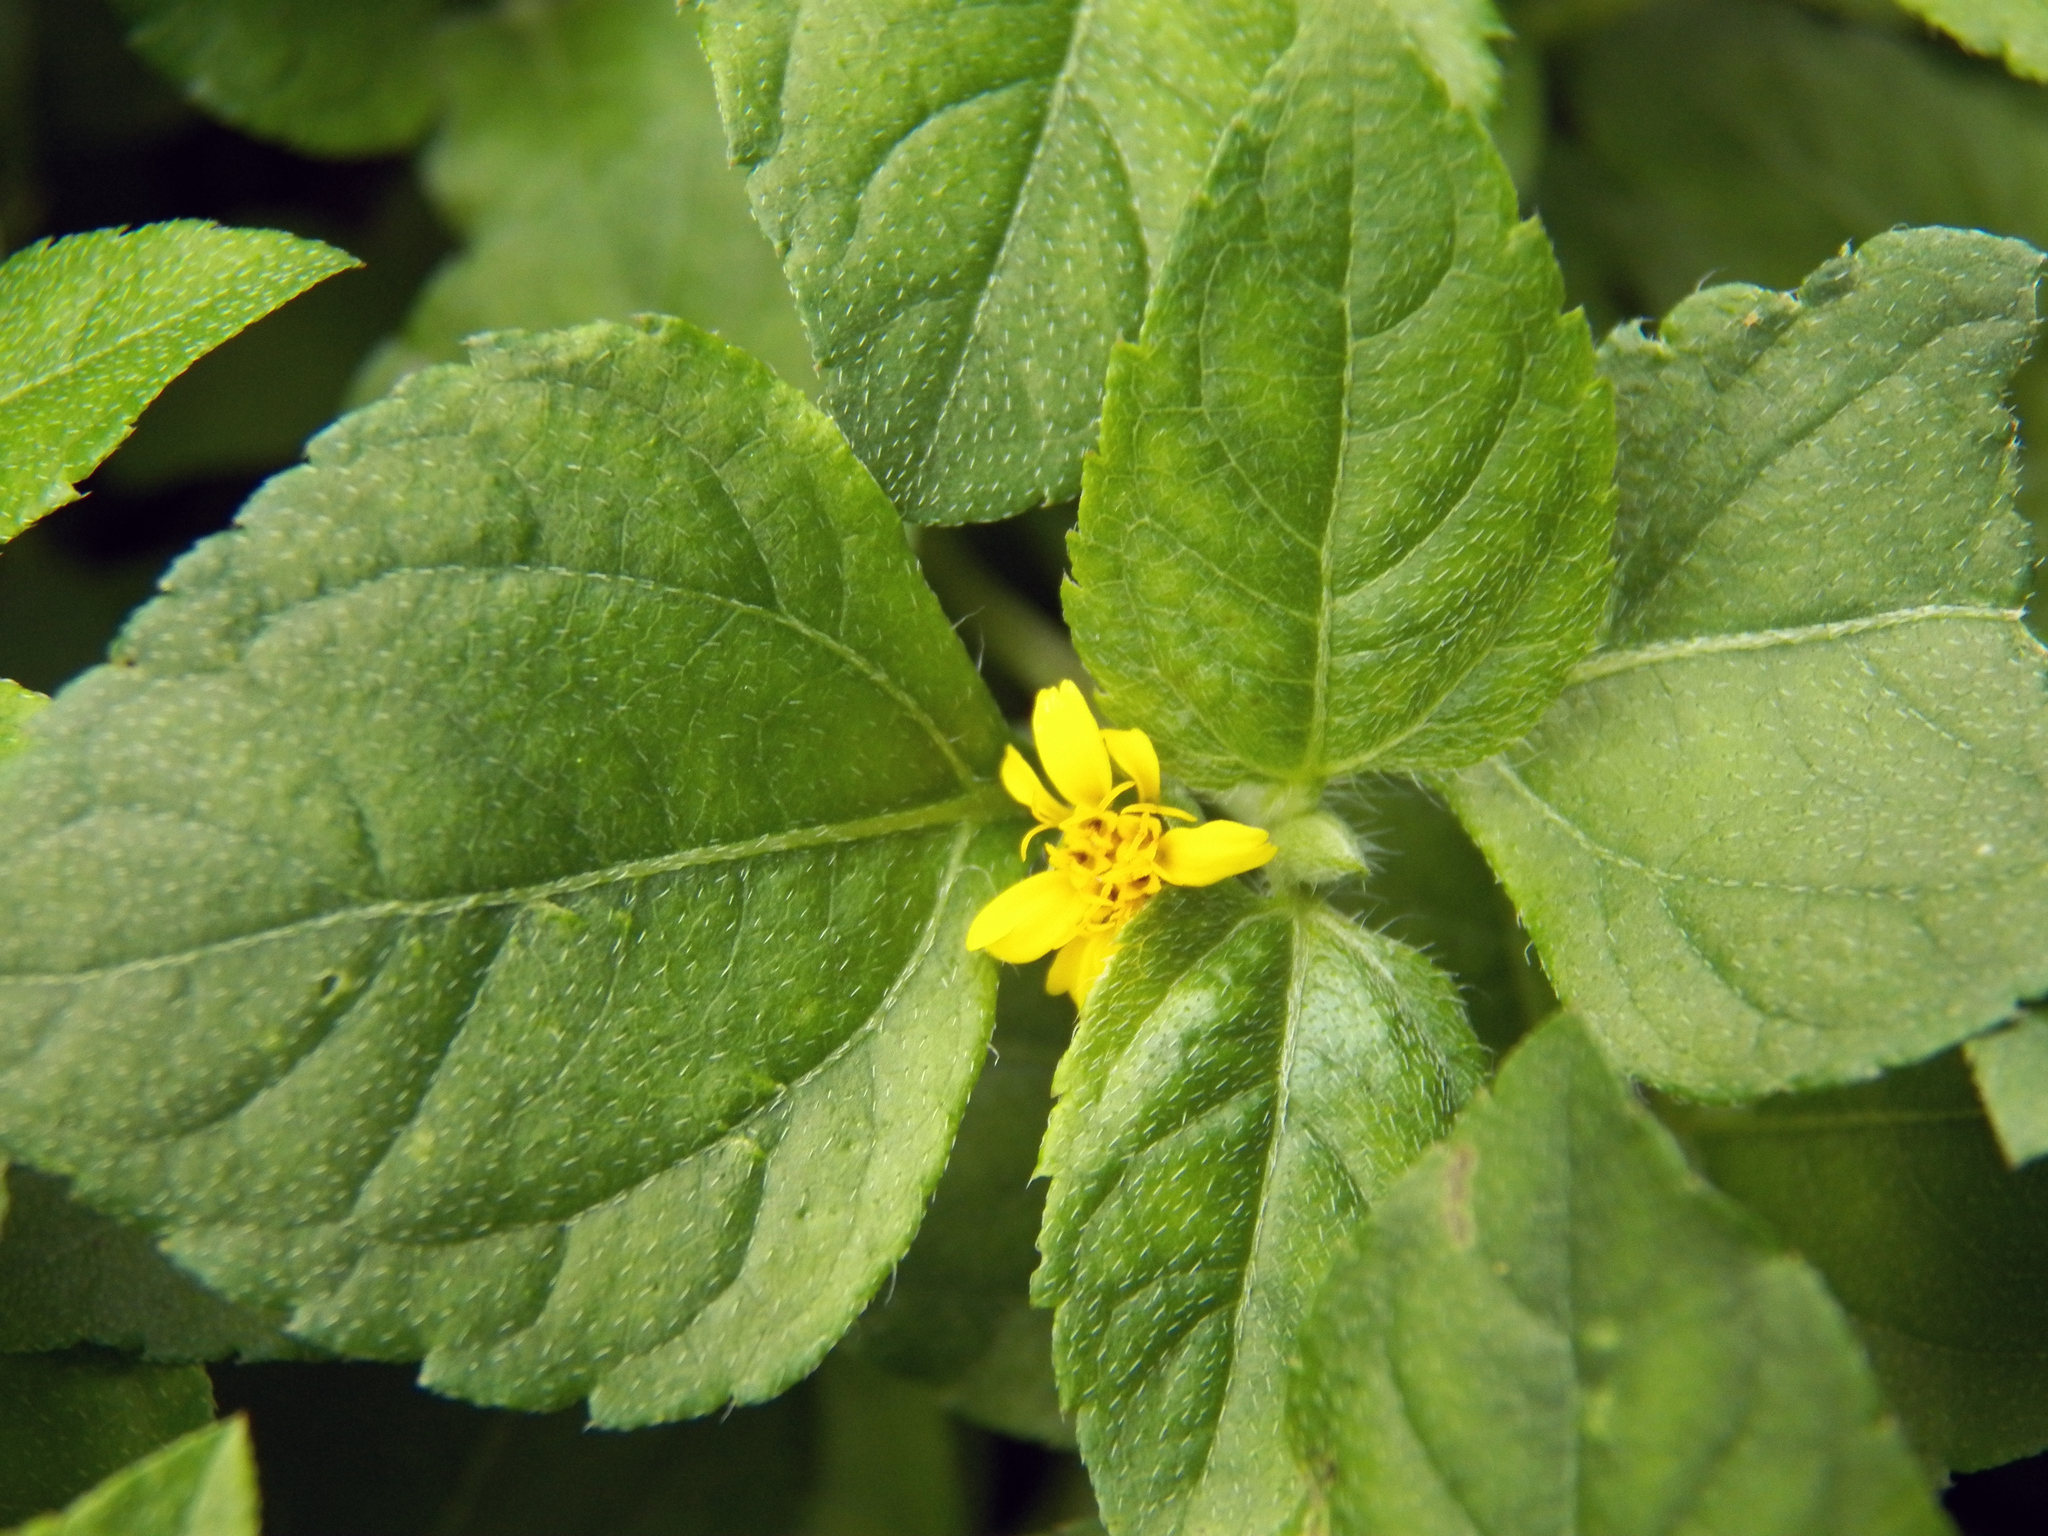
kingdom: Plantae
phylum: Tracheophyta
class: Magnoliopsida
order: Asterales
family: Asteraceae
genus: Calyptocarpus
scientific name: Calyptocarpus vialis
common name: Straggler daisy
